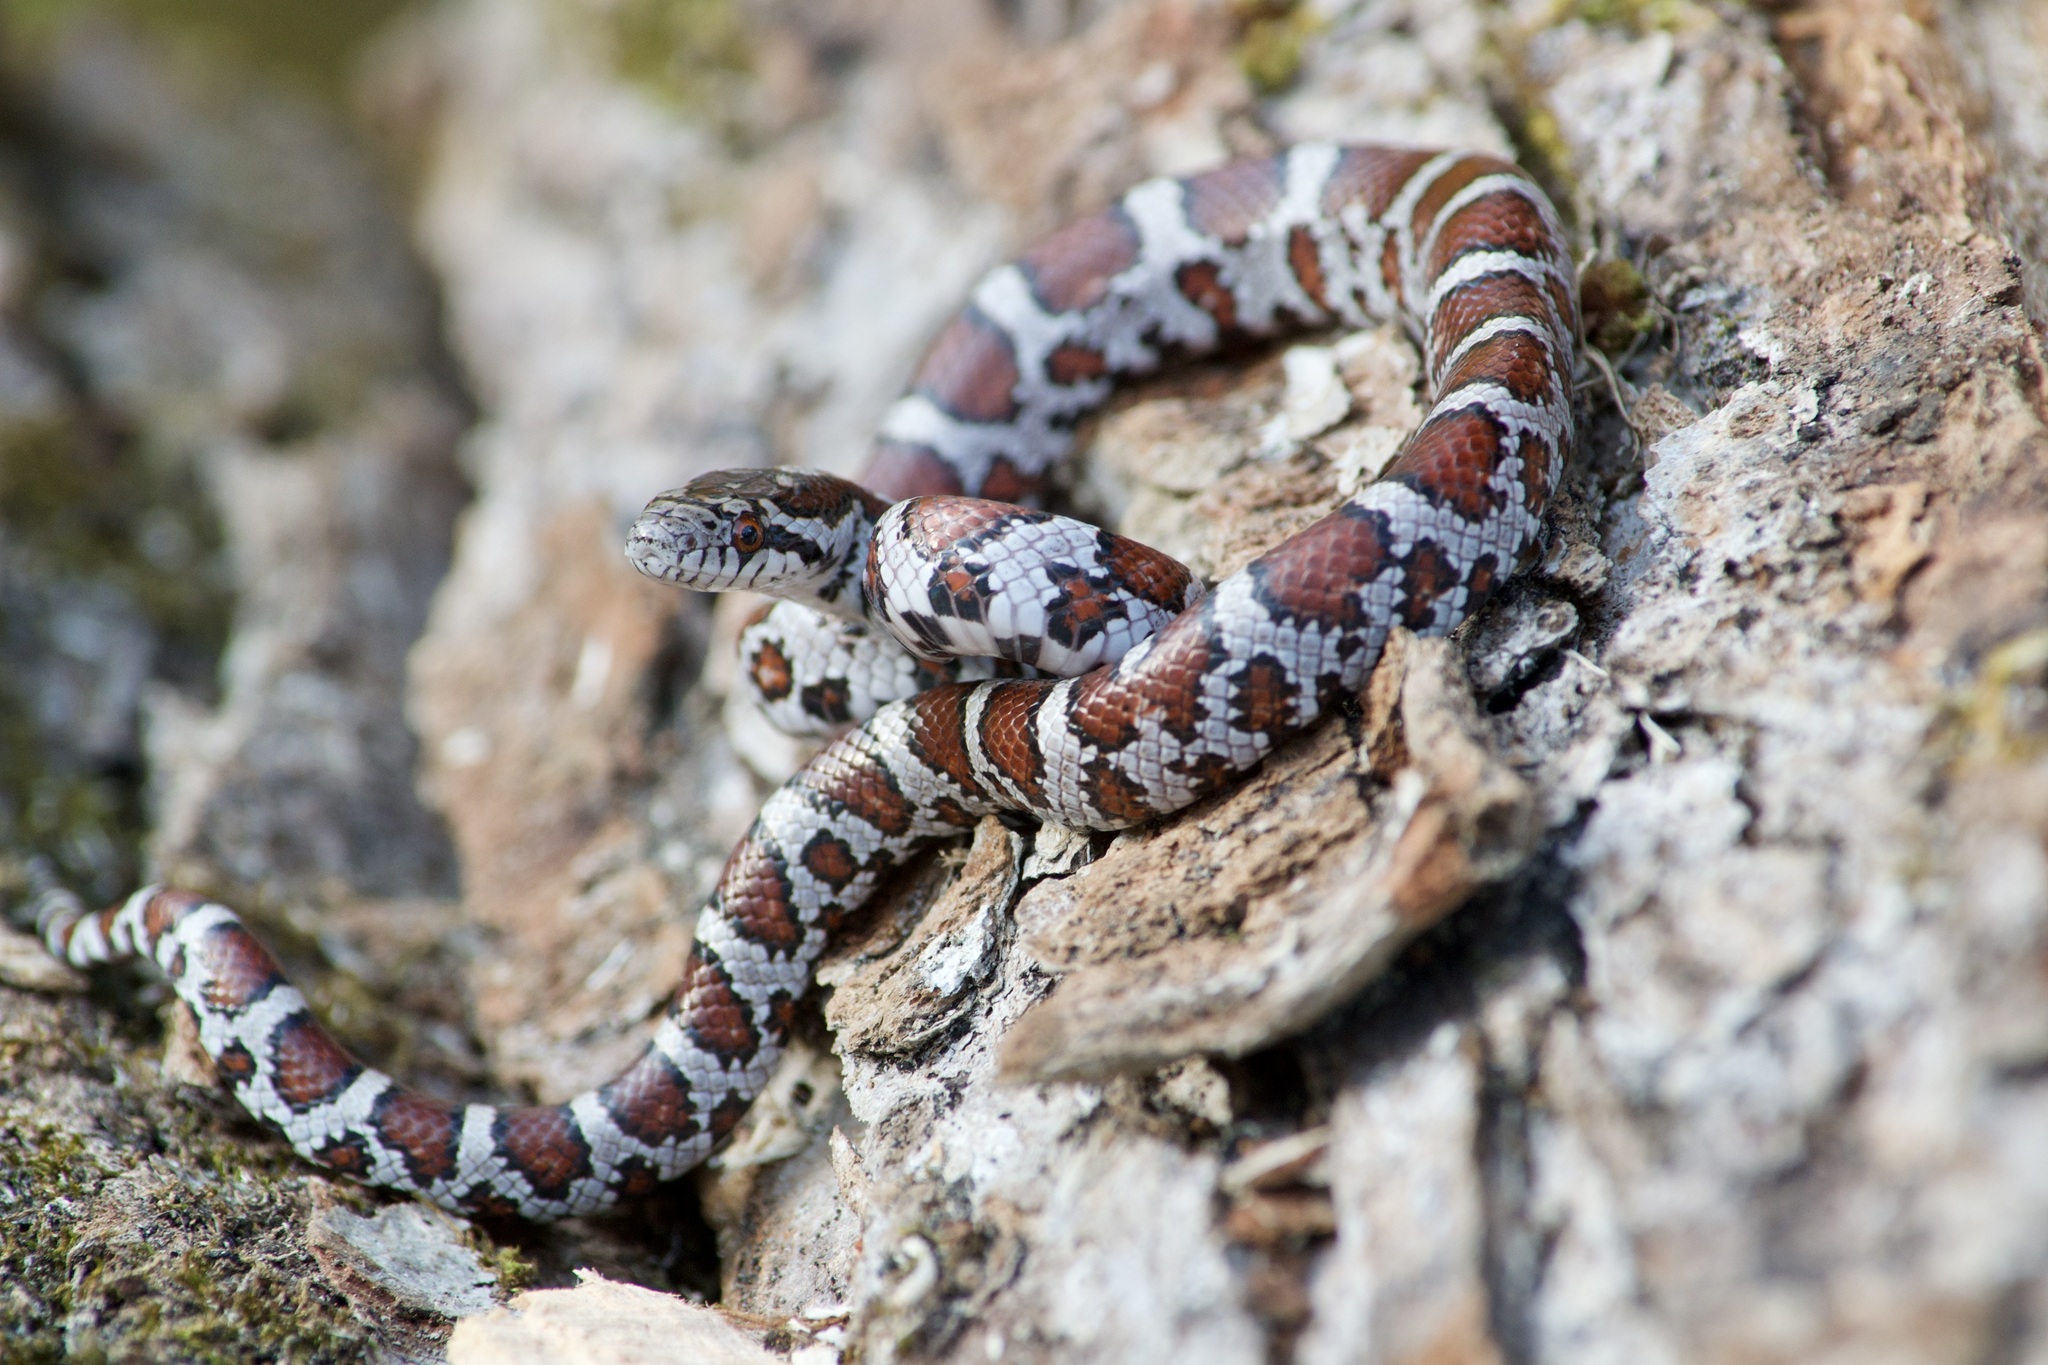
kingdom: Animalia
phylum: Chordata
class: Squamata
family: Colubridae
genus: Lampropeltis
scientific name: Lampropeltis triangulum
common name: Eastern milksnake
